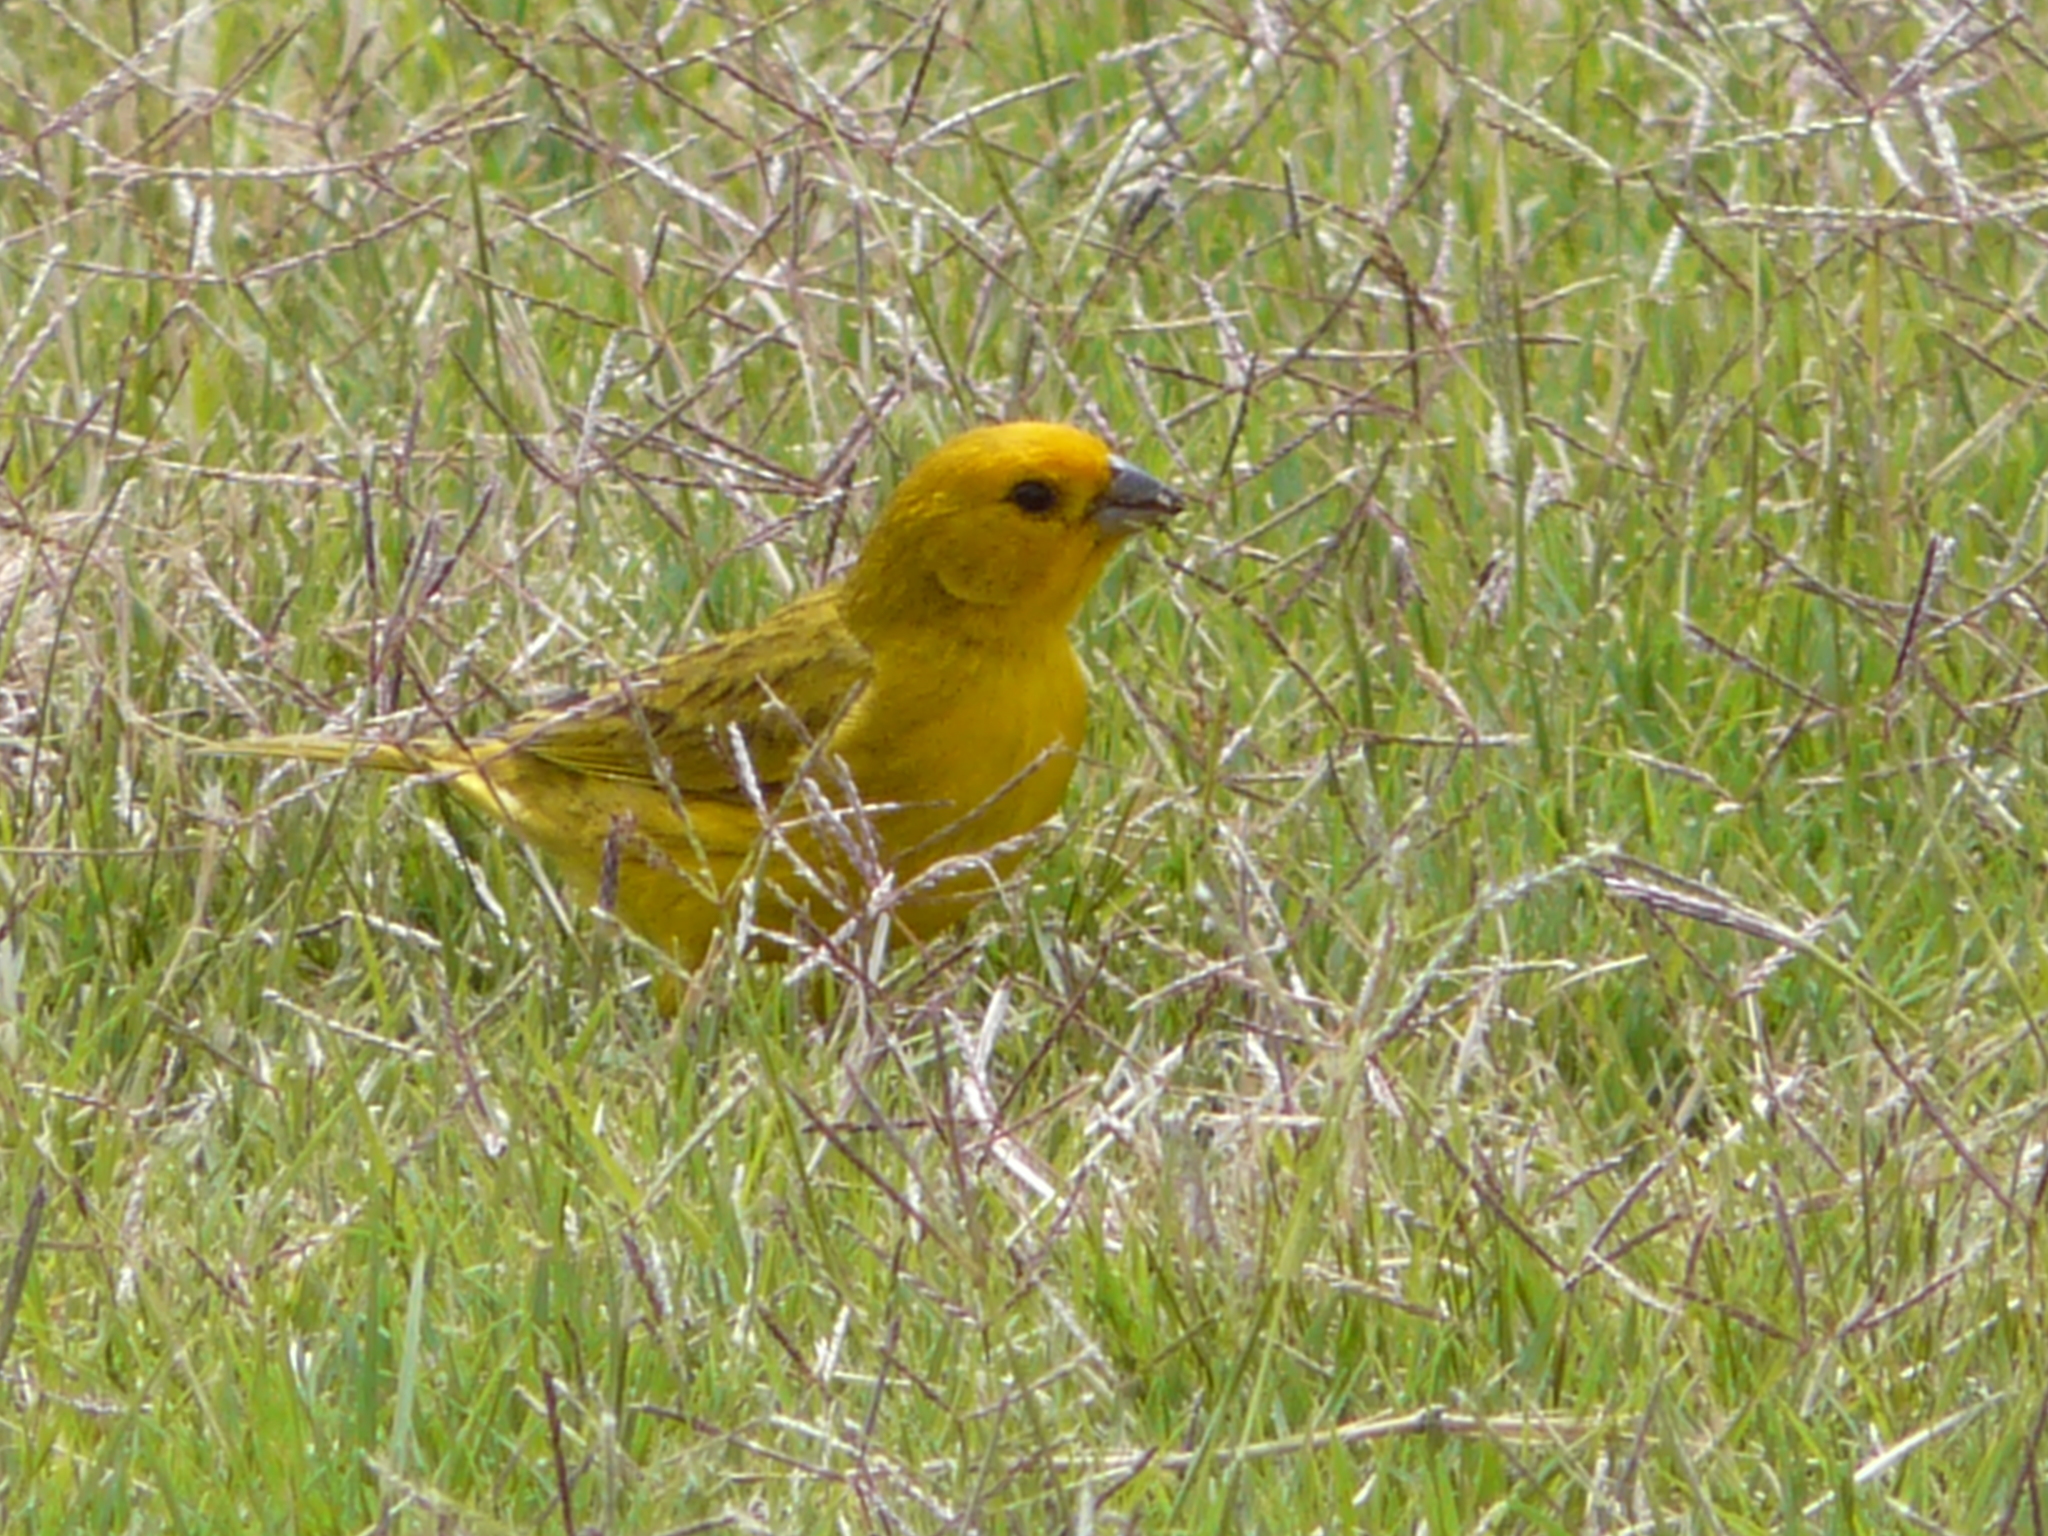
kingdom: Animalia
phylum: Chordata
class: Aves
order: Passeriformes
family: Thraupidae
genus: Sicalis
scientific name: Sicalis flaveola
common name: Saffron finch
